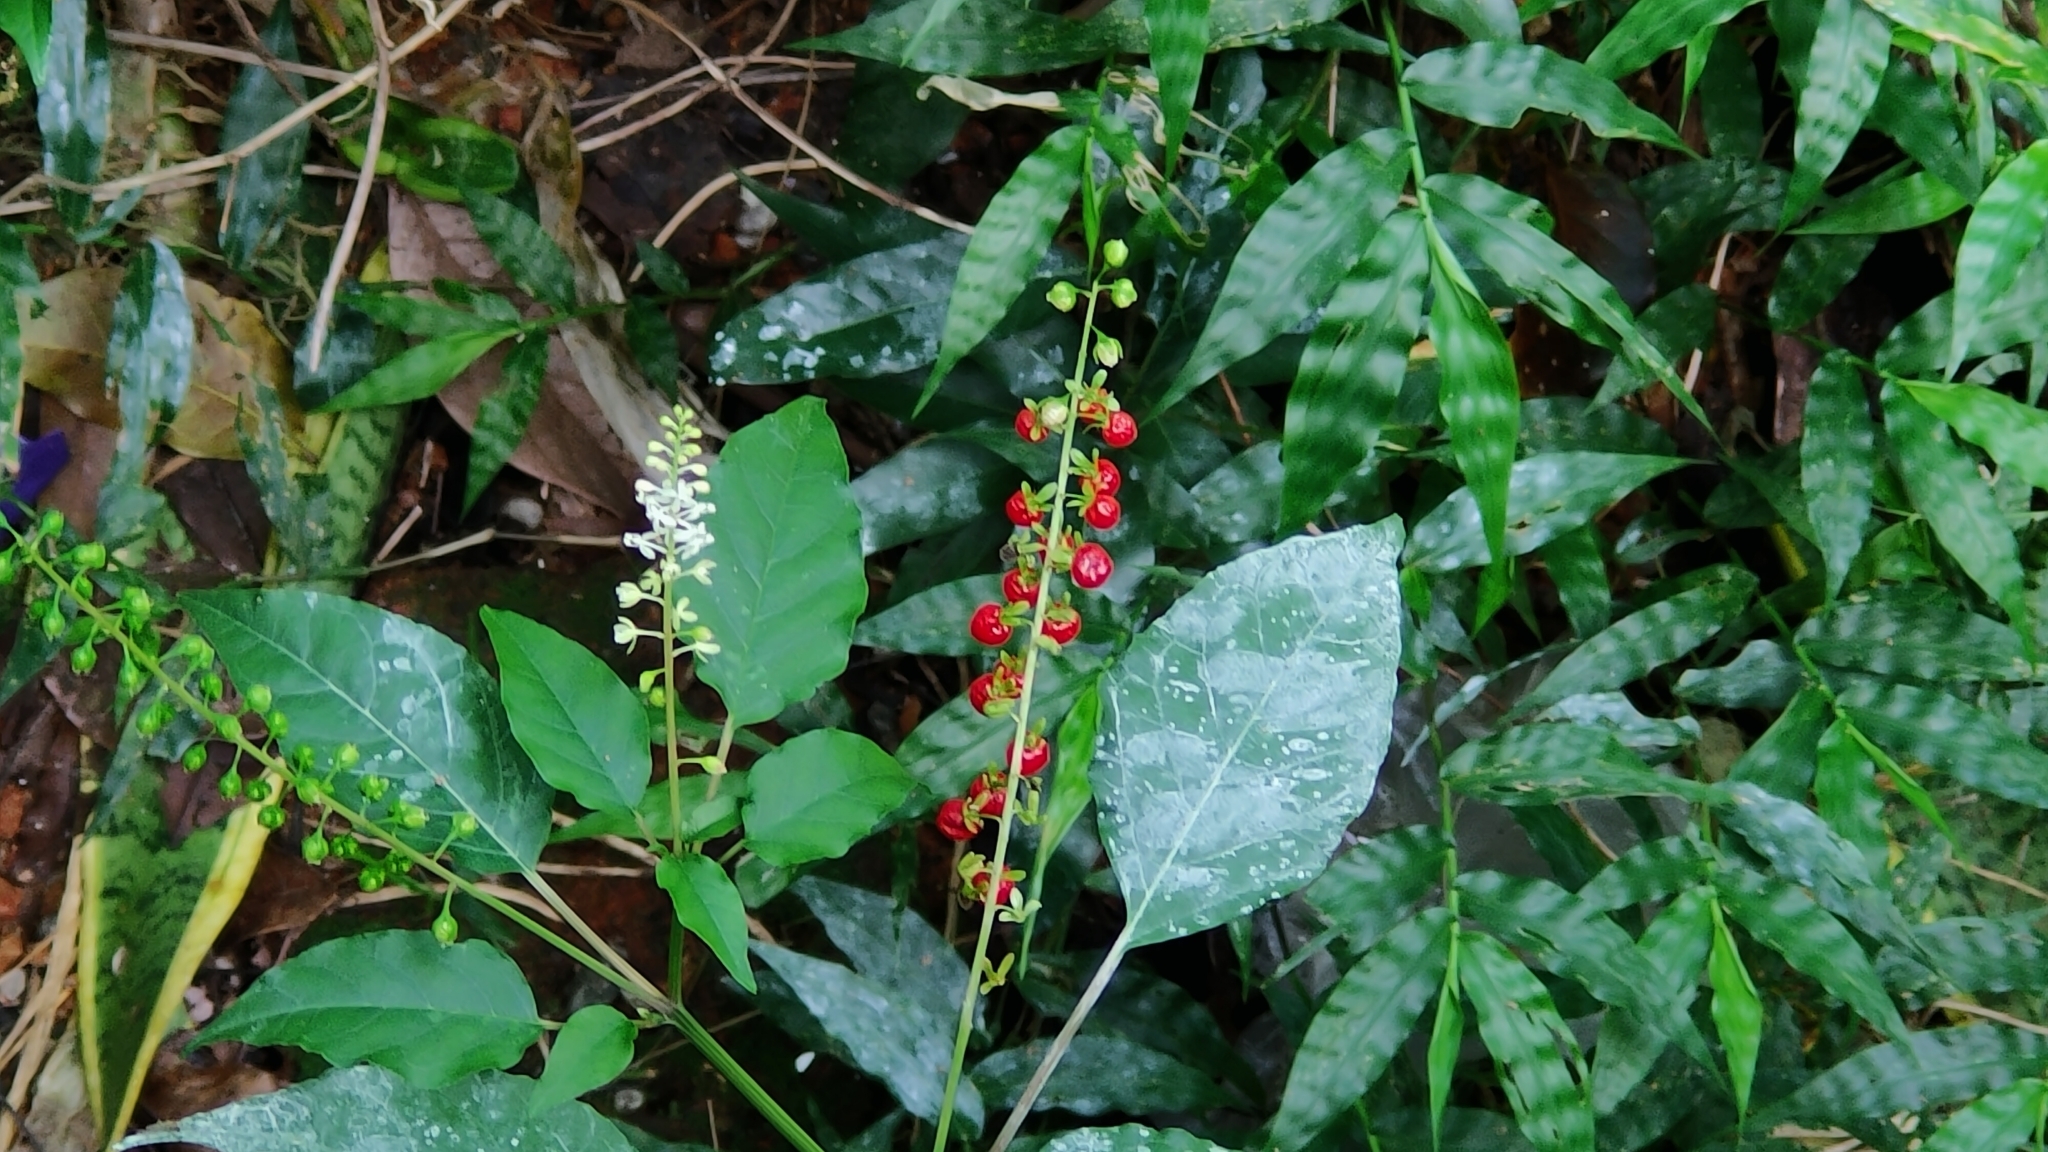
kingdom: Plantae
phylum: Tracheophyta
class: Magnoliopsida
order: Caryophyllales
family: Phytolaccaceae
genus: Rivina
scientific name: Rivina humilis
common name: Rougeplant
